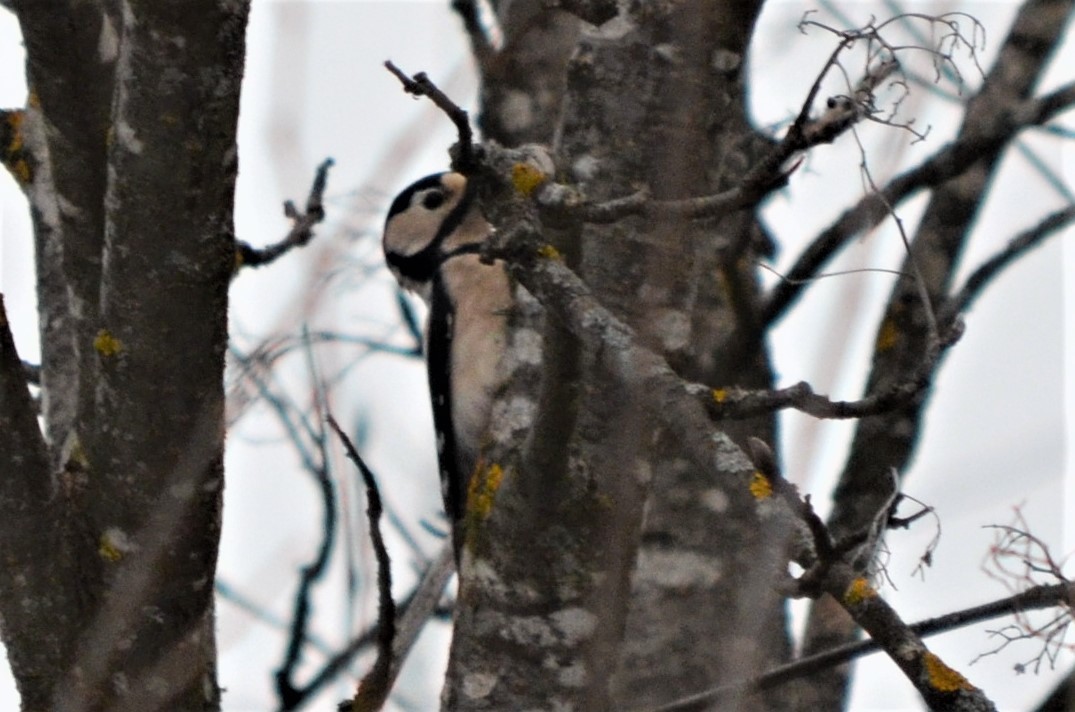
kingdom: Animalia
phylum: Chordata
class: Aves
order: Piciformes
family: Picidae
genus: Dendrocopos
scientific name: Dendrocopos major
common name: Great spotted woodpecker
